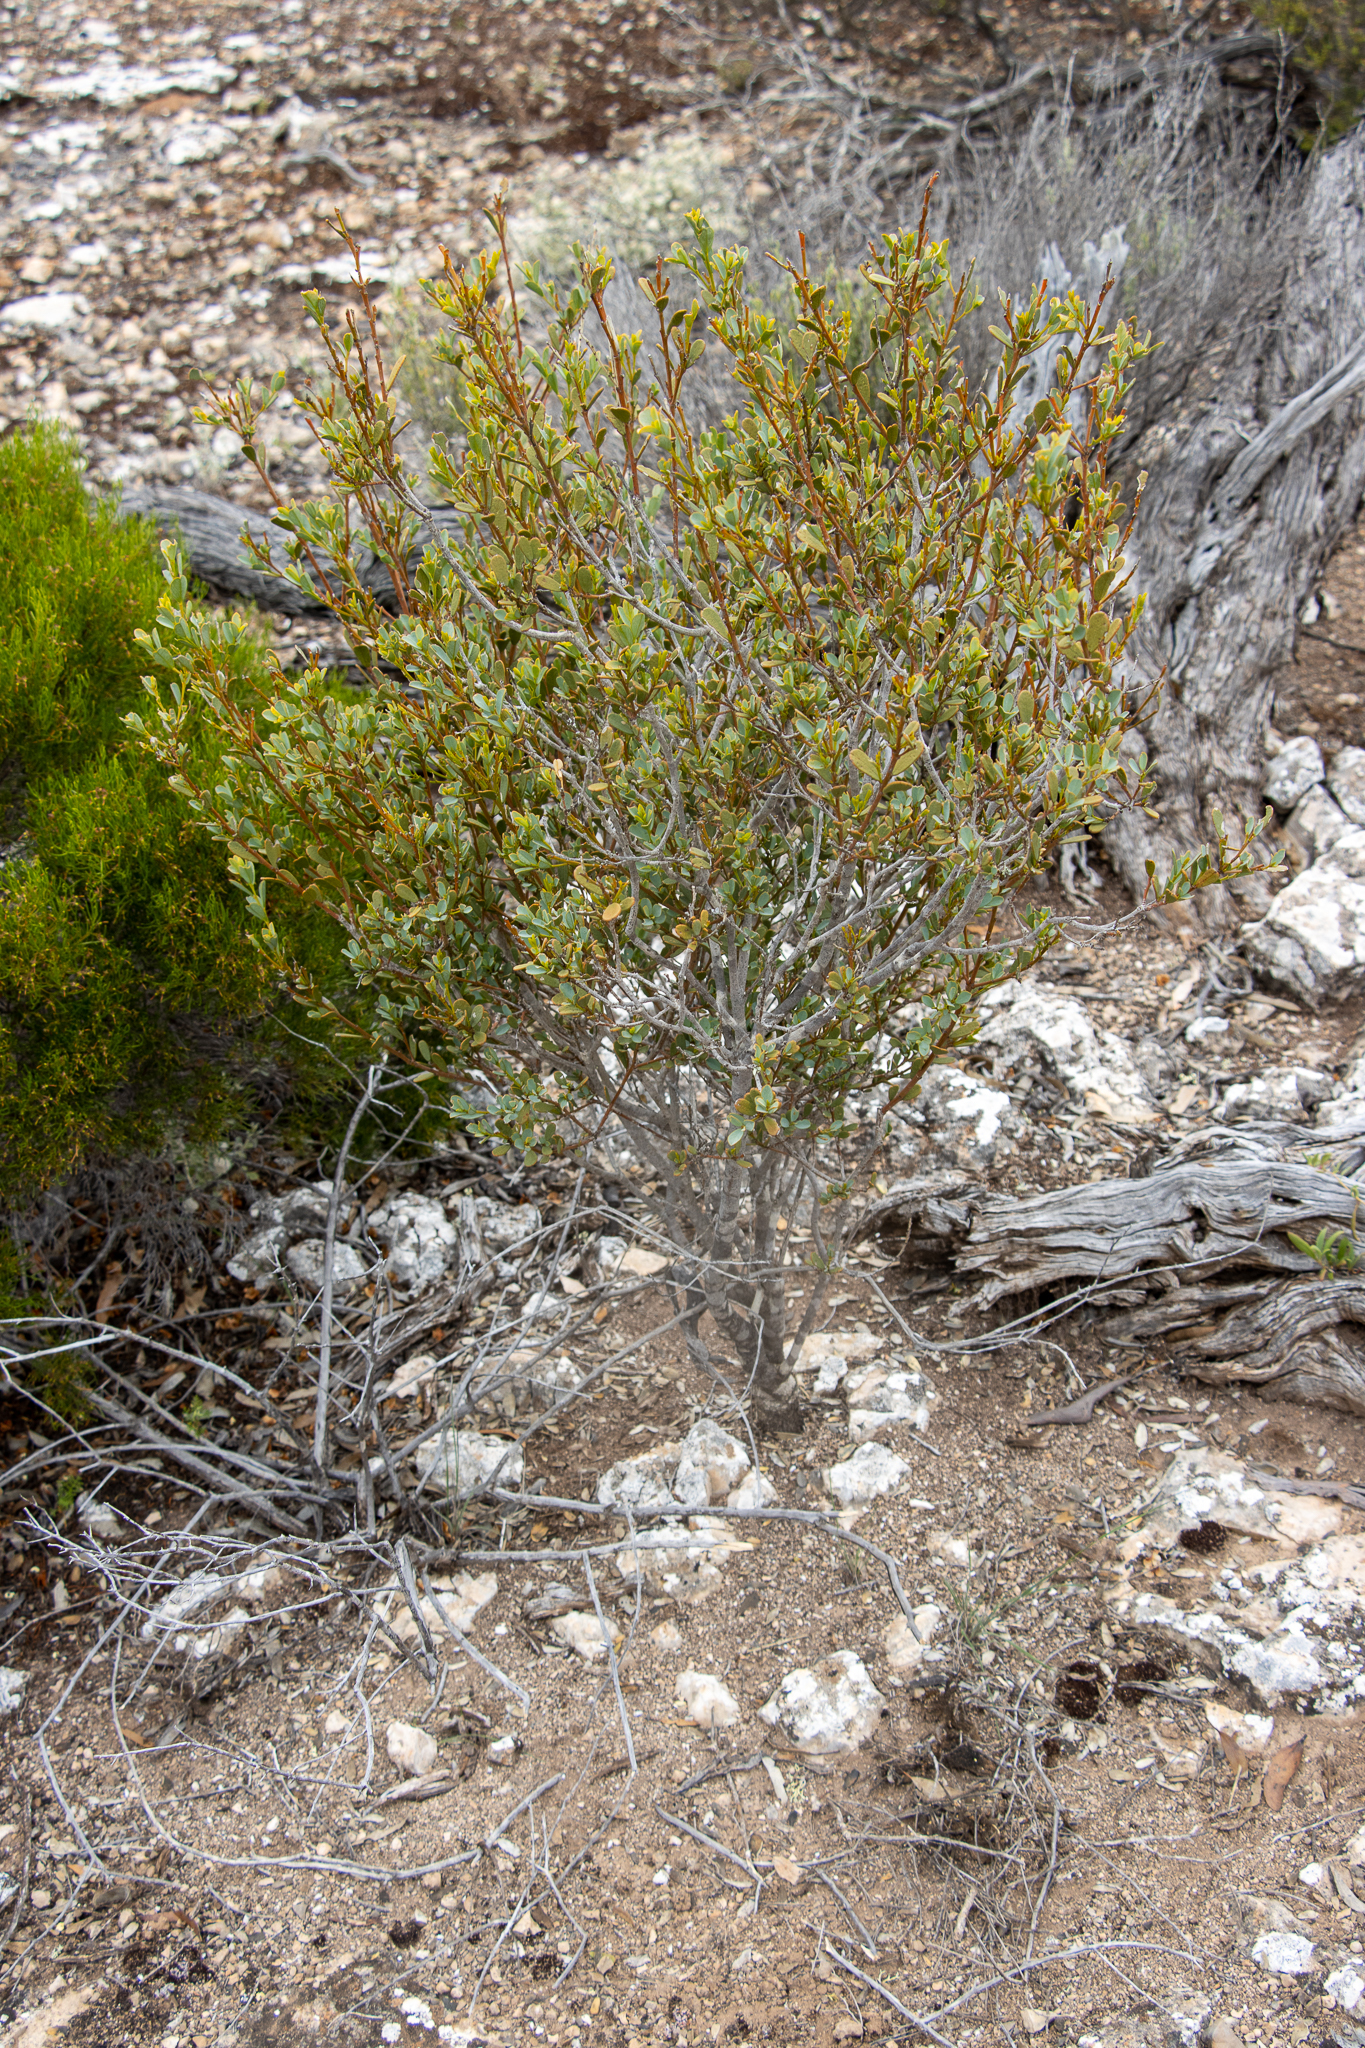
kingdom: Plantae
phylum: Tracheophyta
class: Magnoliopsida
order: Fabales
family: Fabaceae
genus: Templetonia
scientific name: Templetonia retusa
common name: Cockies'-tongue
